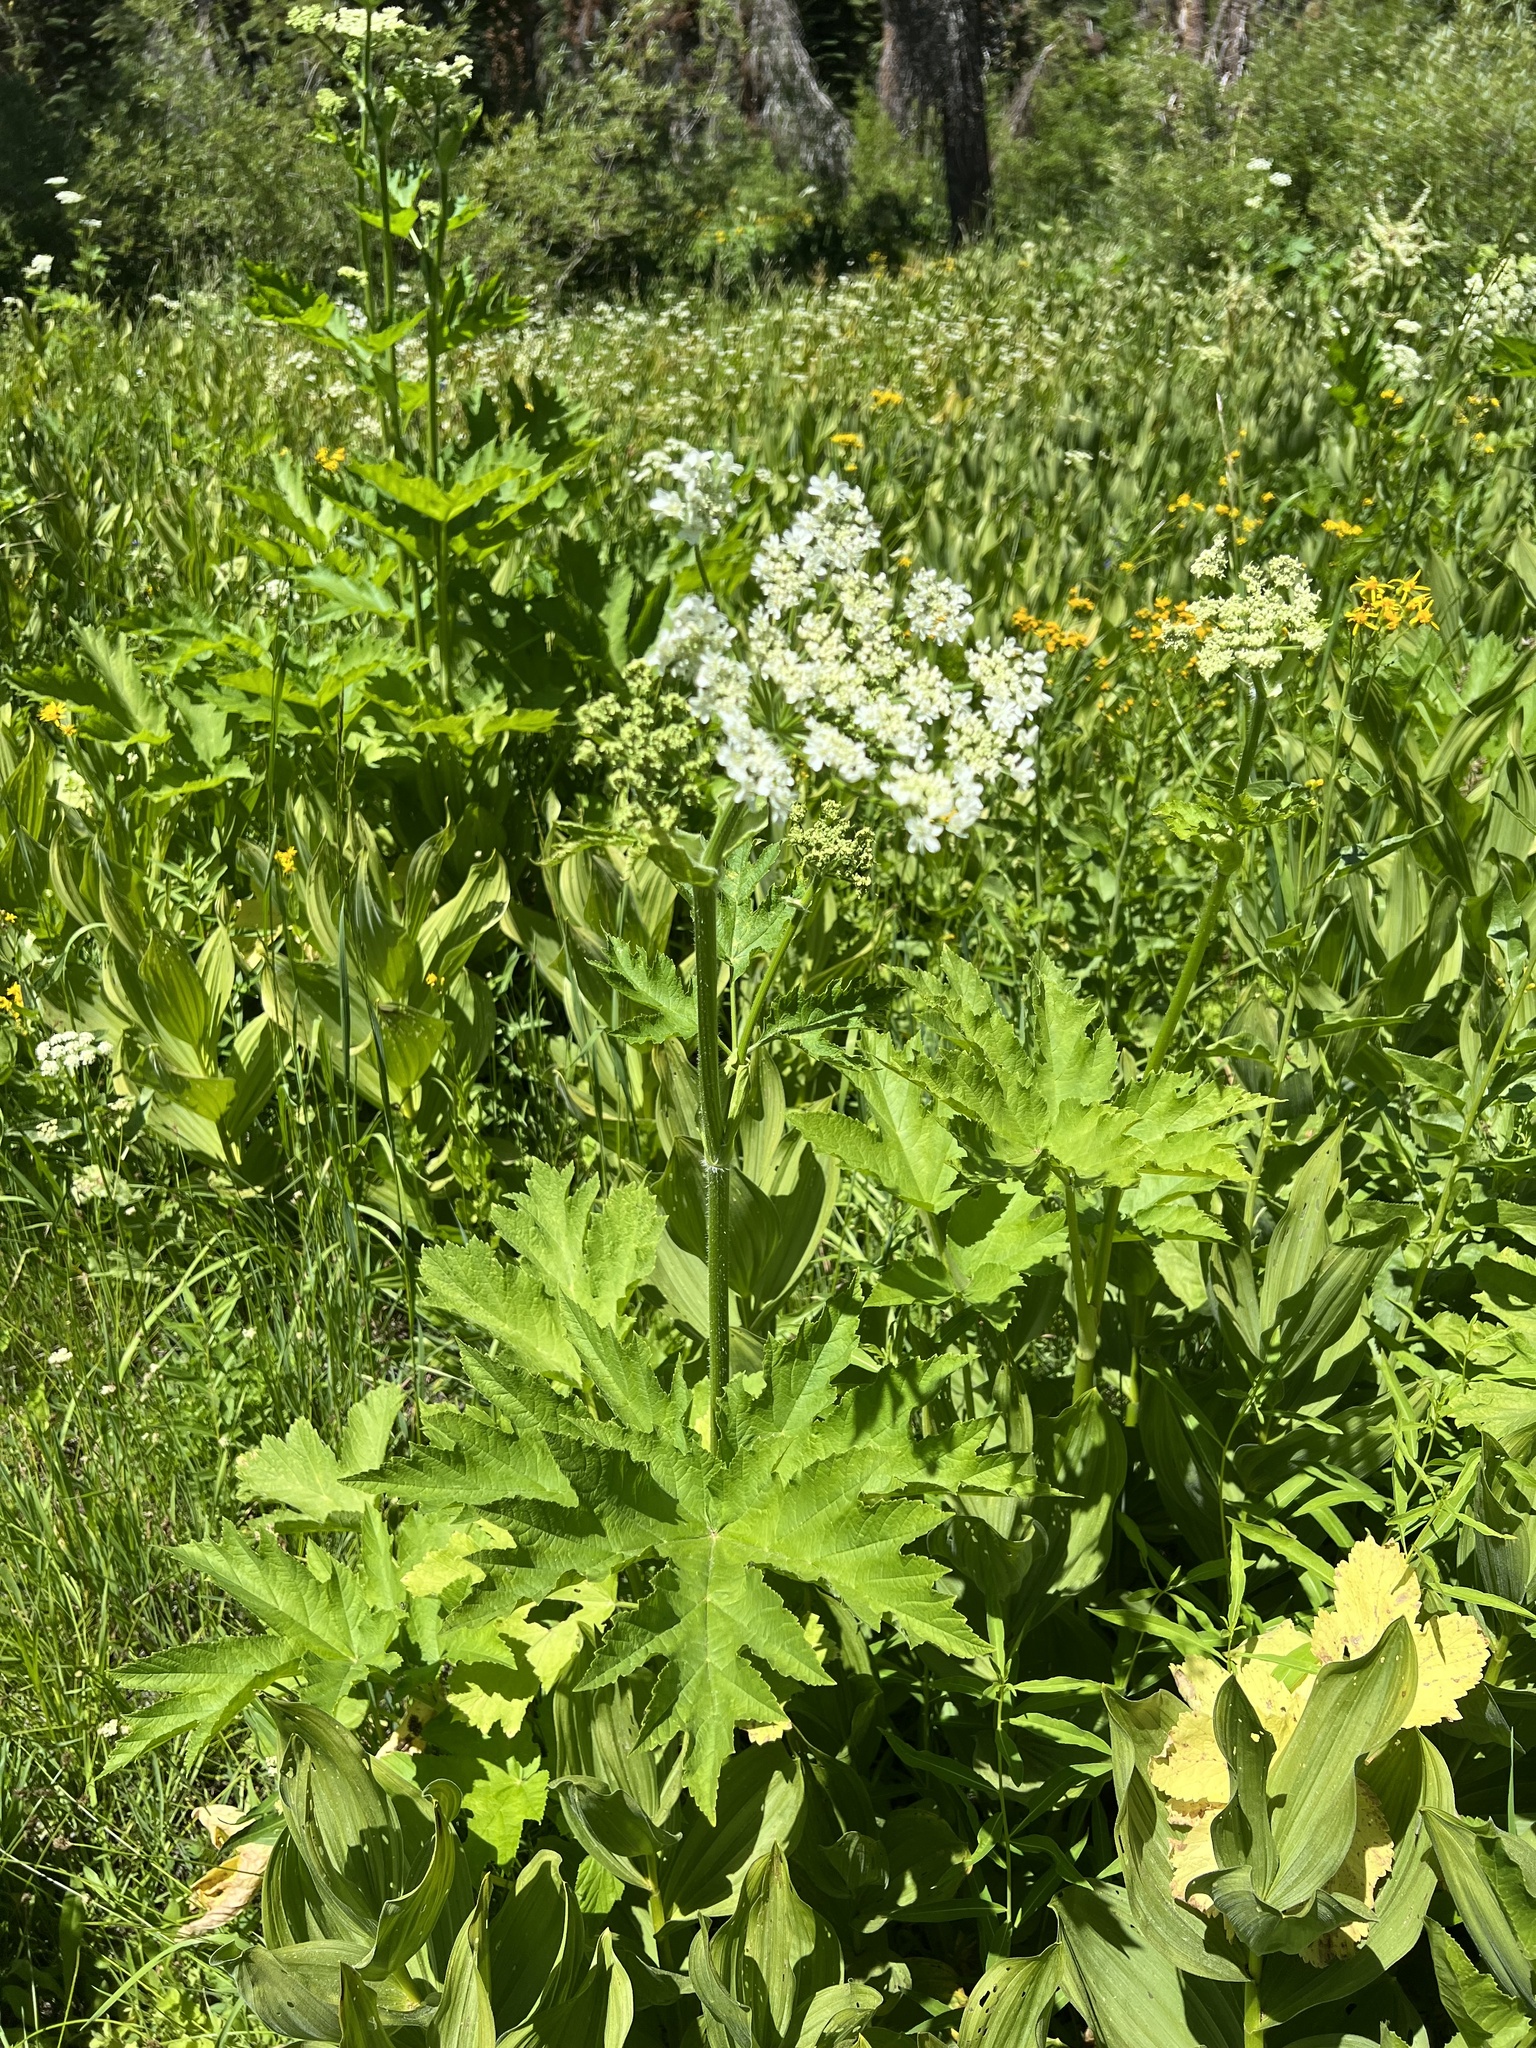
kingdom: Plantae
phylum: Tracheophyta
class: Magnoliopsida
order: Apiales
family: Apiaceae
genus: Heracleum
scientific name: Heracleum maximum
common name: American cow parsnip
